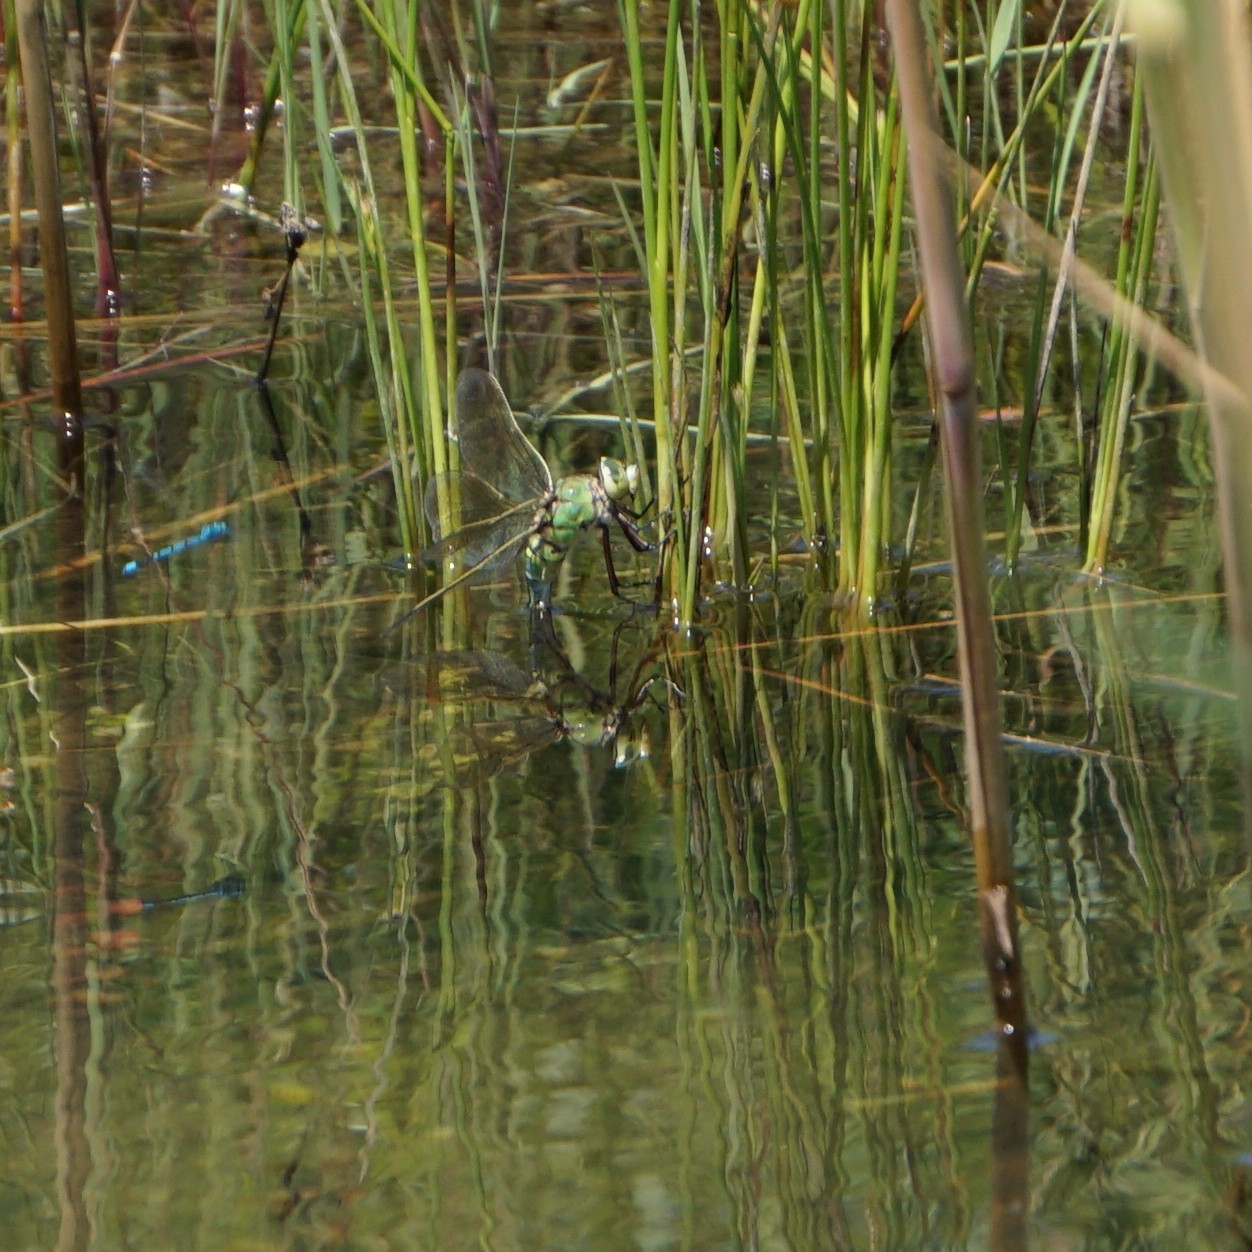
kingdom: Animalia
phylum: Arthropoda
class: Insecta
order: Odonata
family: Aeshnidae
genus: Anax
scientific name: Anax imperator
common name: Emperor dragonfly
